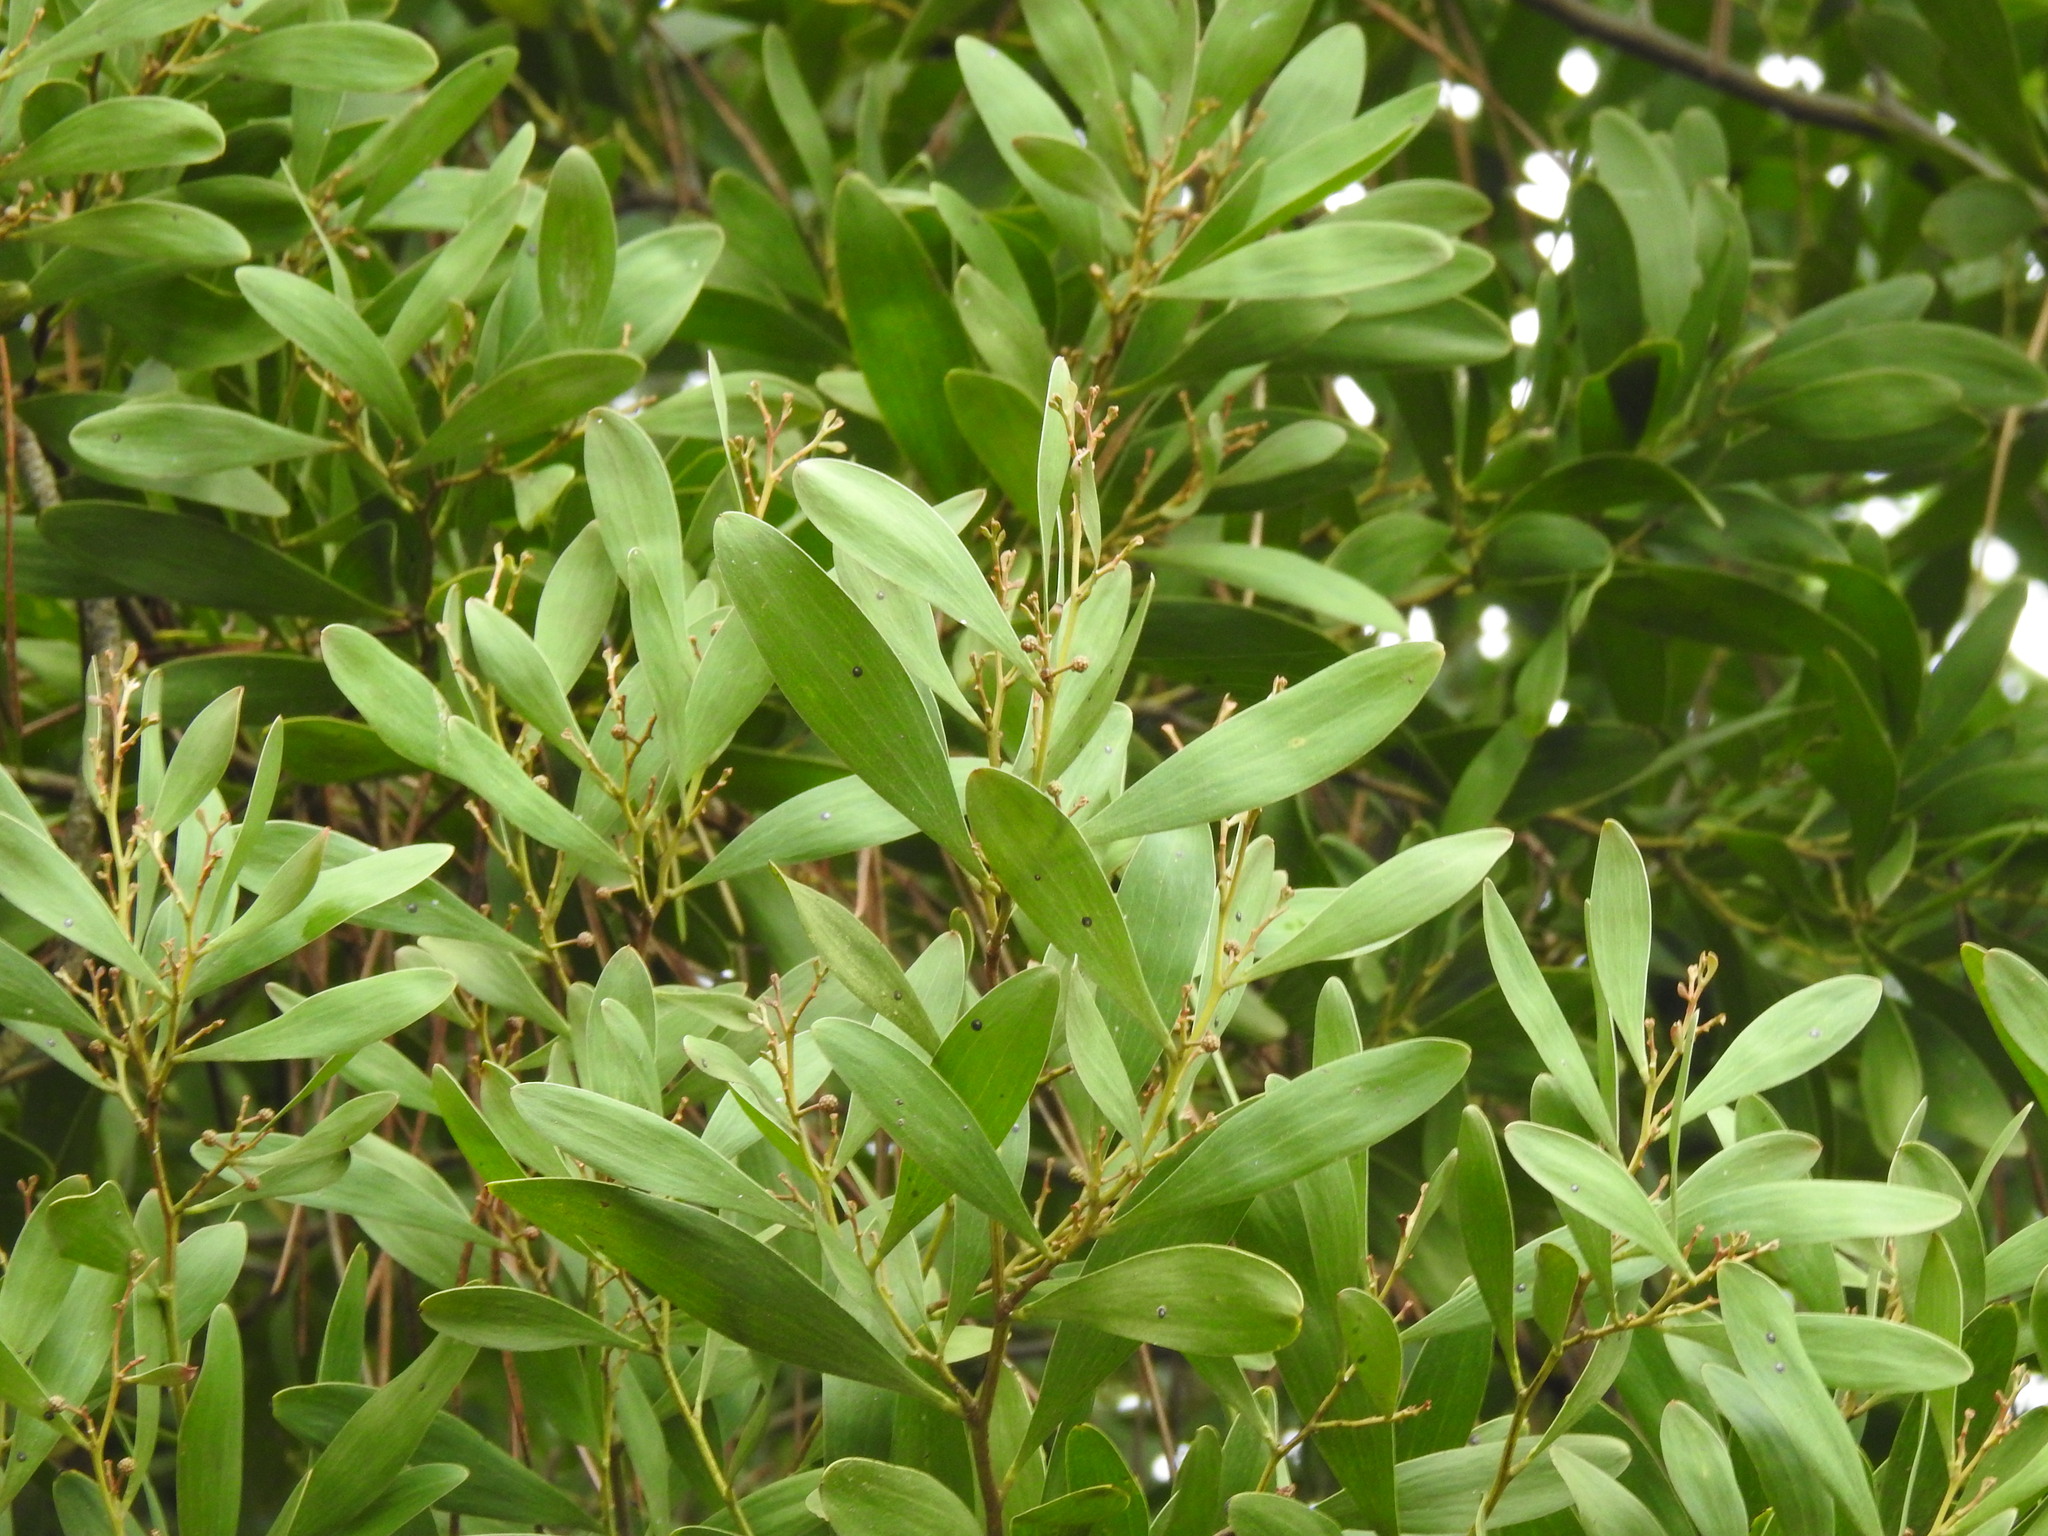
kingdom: Plantae
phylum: Tracheophyta
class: Magnoliopsida
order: Fabales
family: Fabaceae
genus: Acacia
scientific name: Acacia melanoxylon
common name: Blackwood
